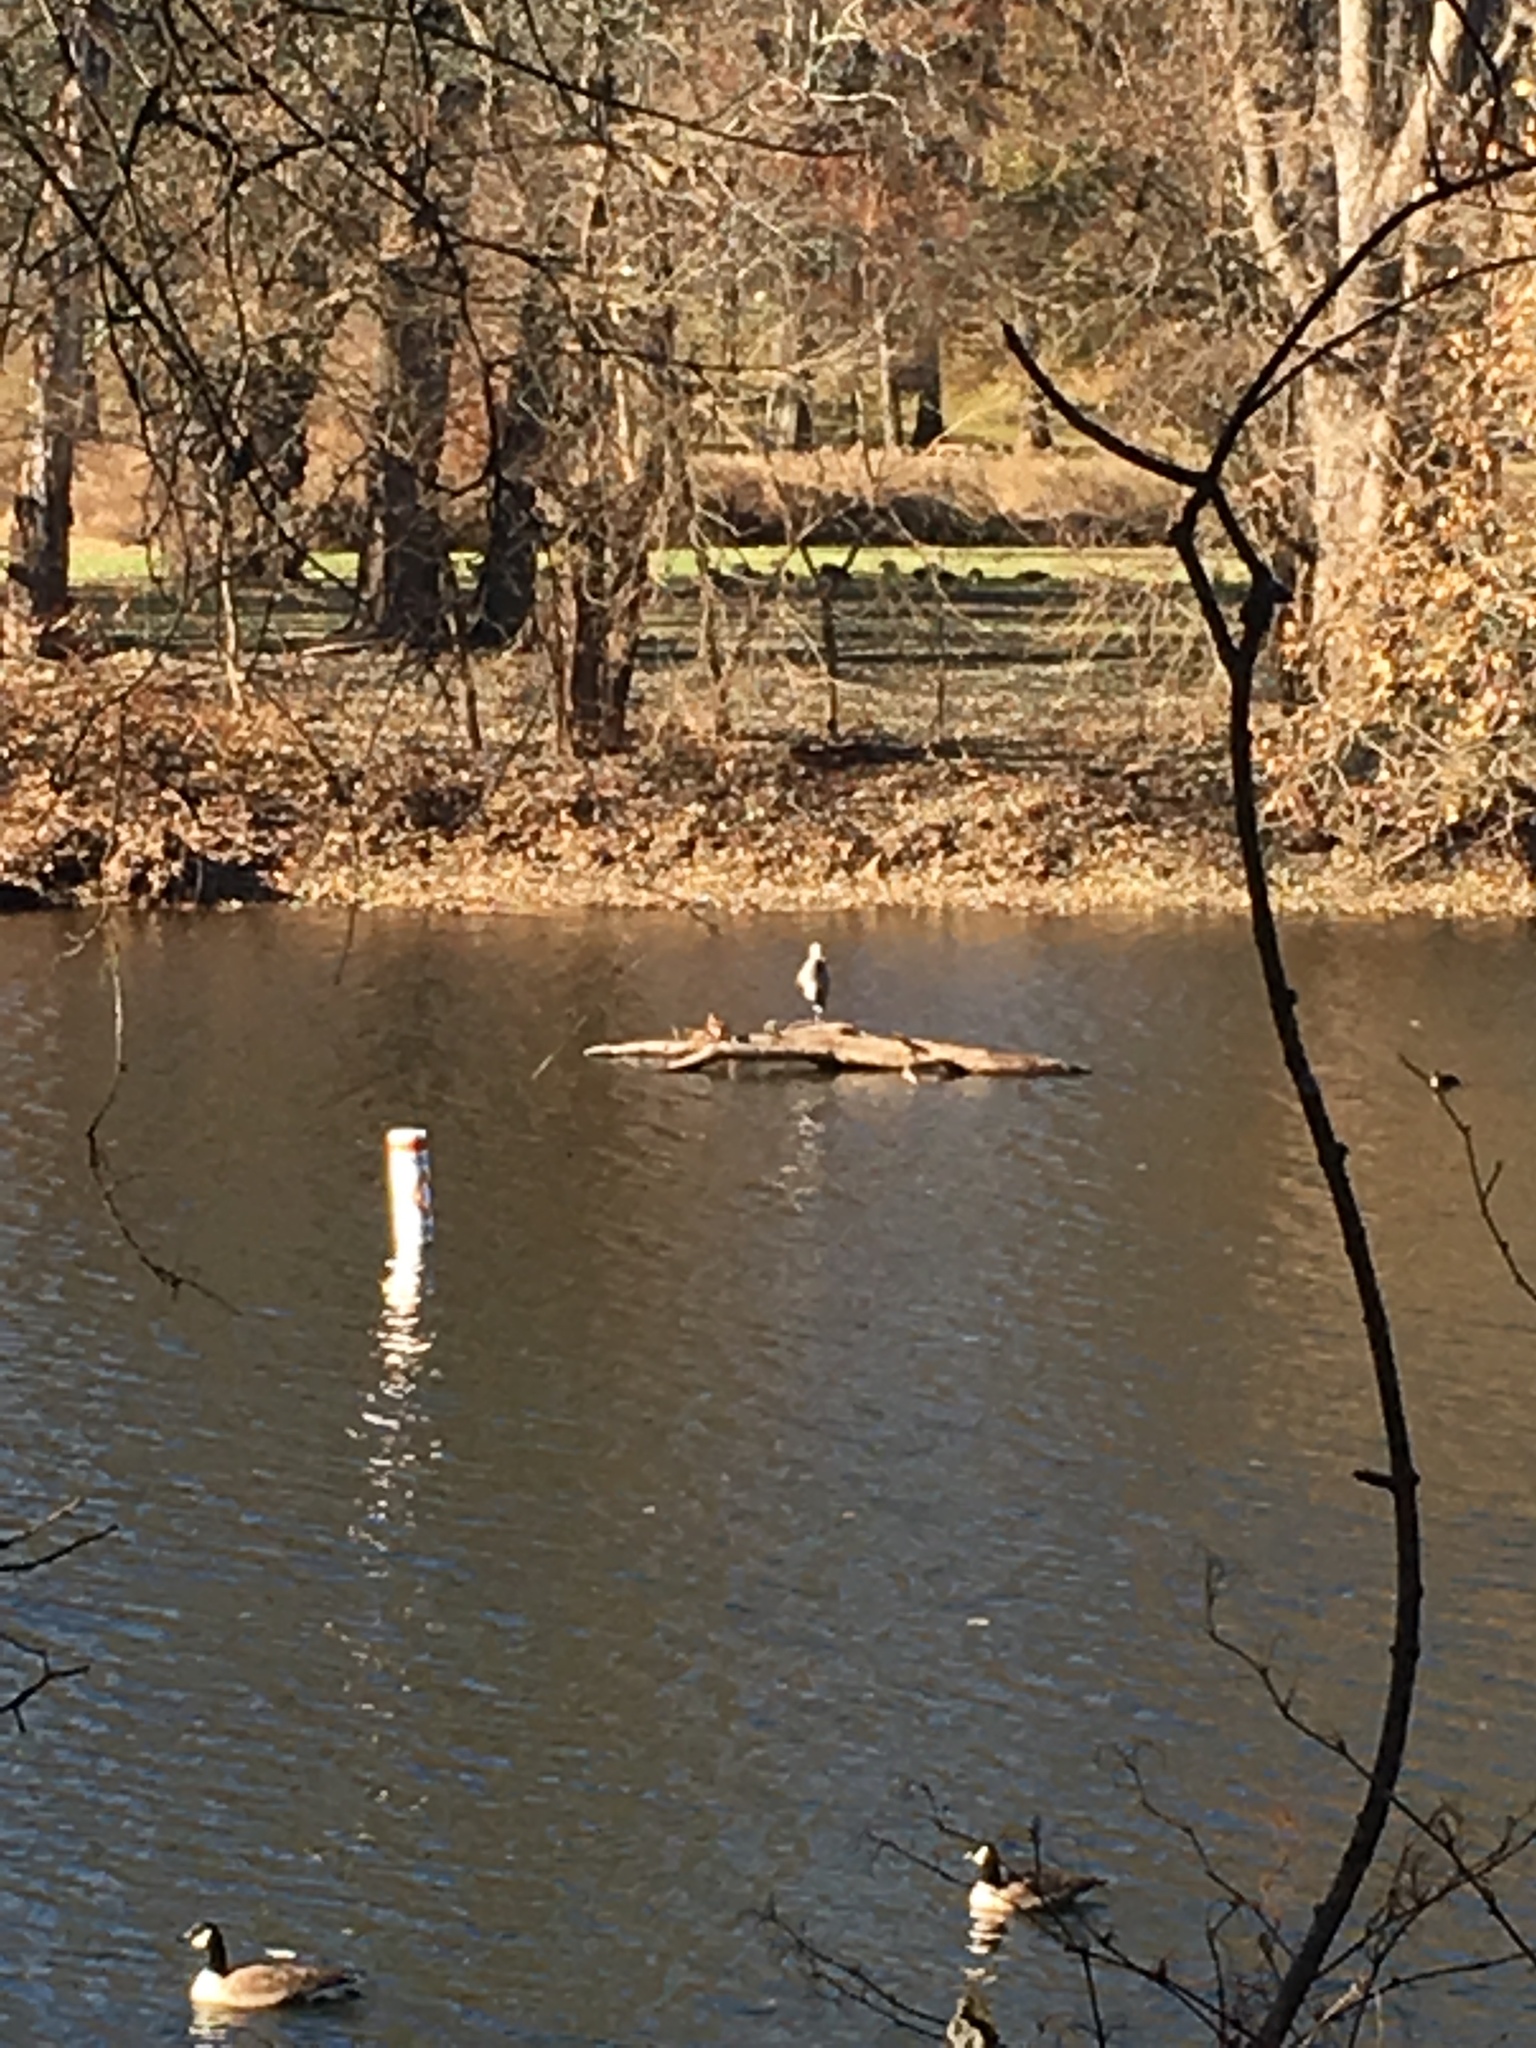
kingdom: Animalia
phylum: Chordata
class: Aves
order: Pelecaniformes
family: Ardeidae
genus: Ardea
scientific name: Ardea herodias
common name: Great blue heron
